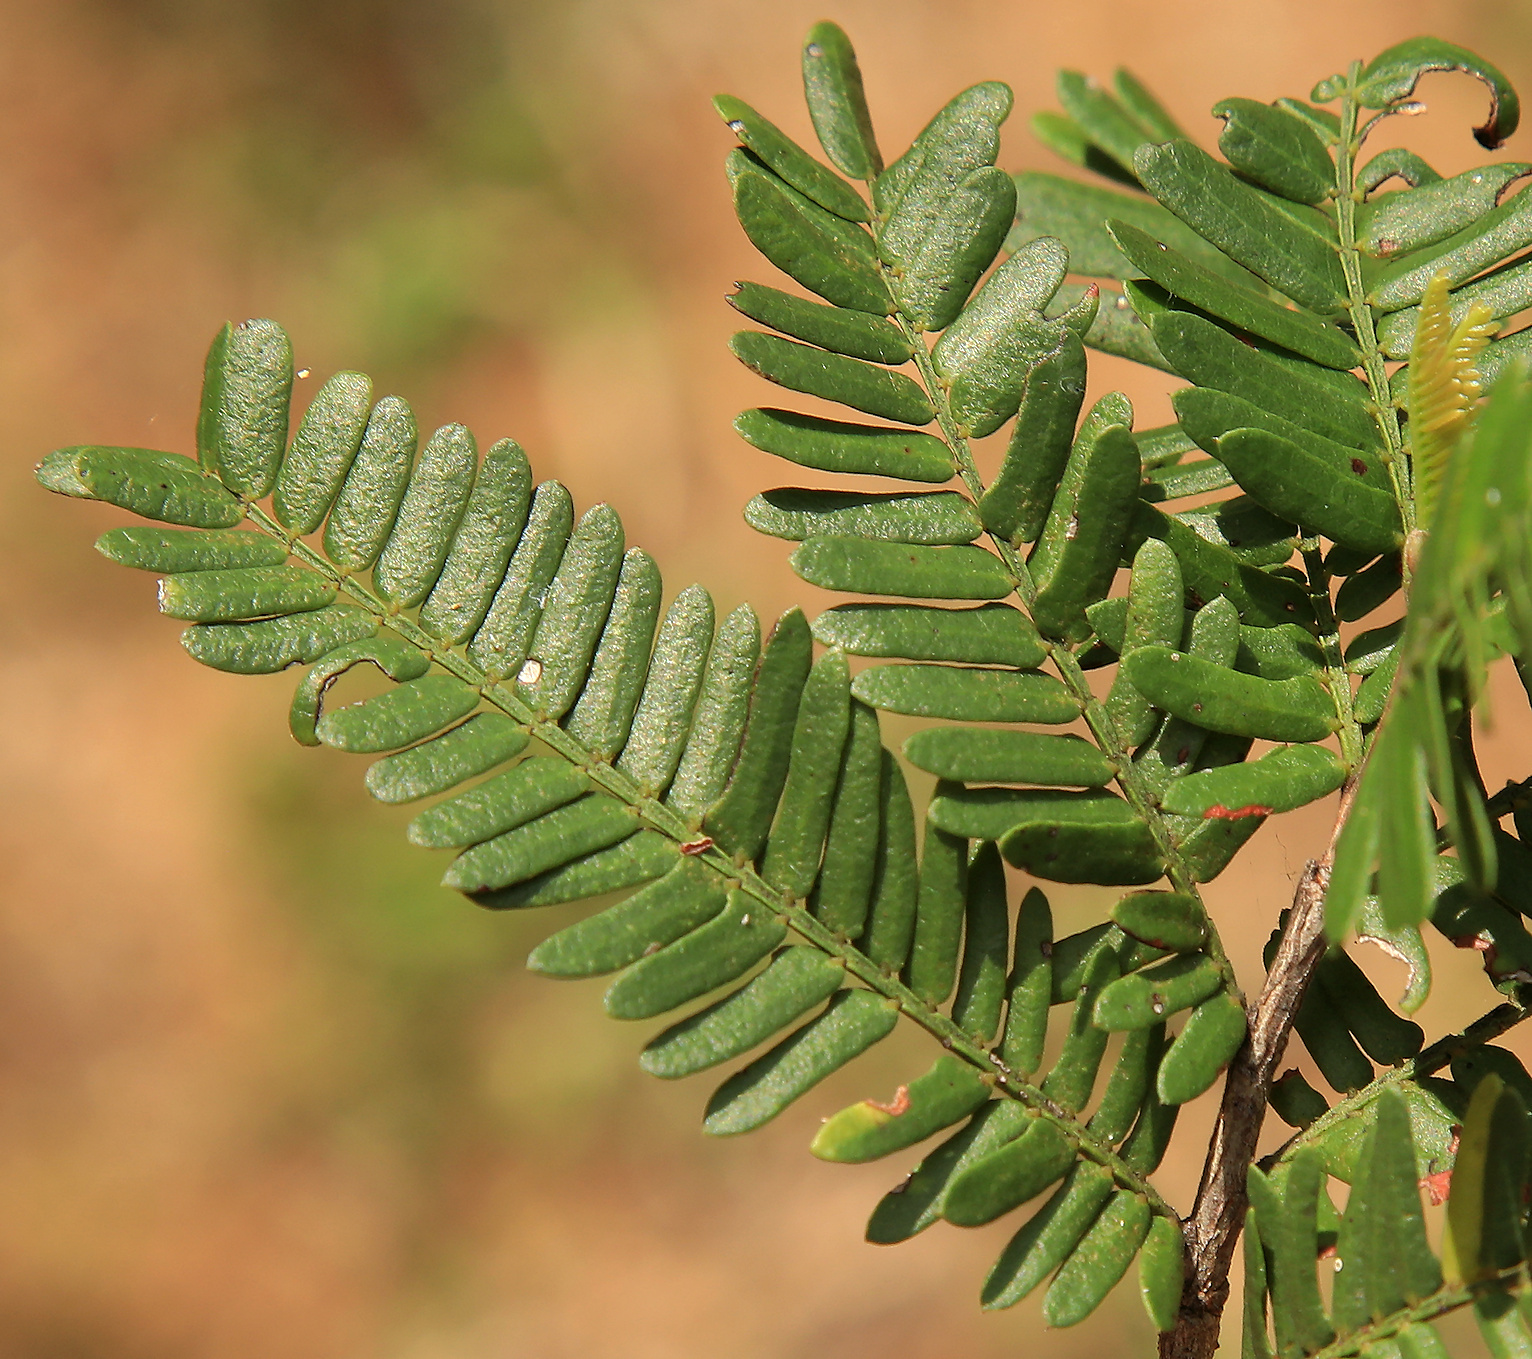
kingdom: Plantae
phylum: Tracheophyta
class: Magnoliopsida
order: Fabales
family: Fabaceae
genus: Schotia
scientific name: Schotia afra
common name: Hottentot's bean
